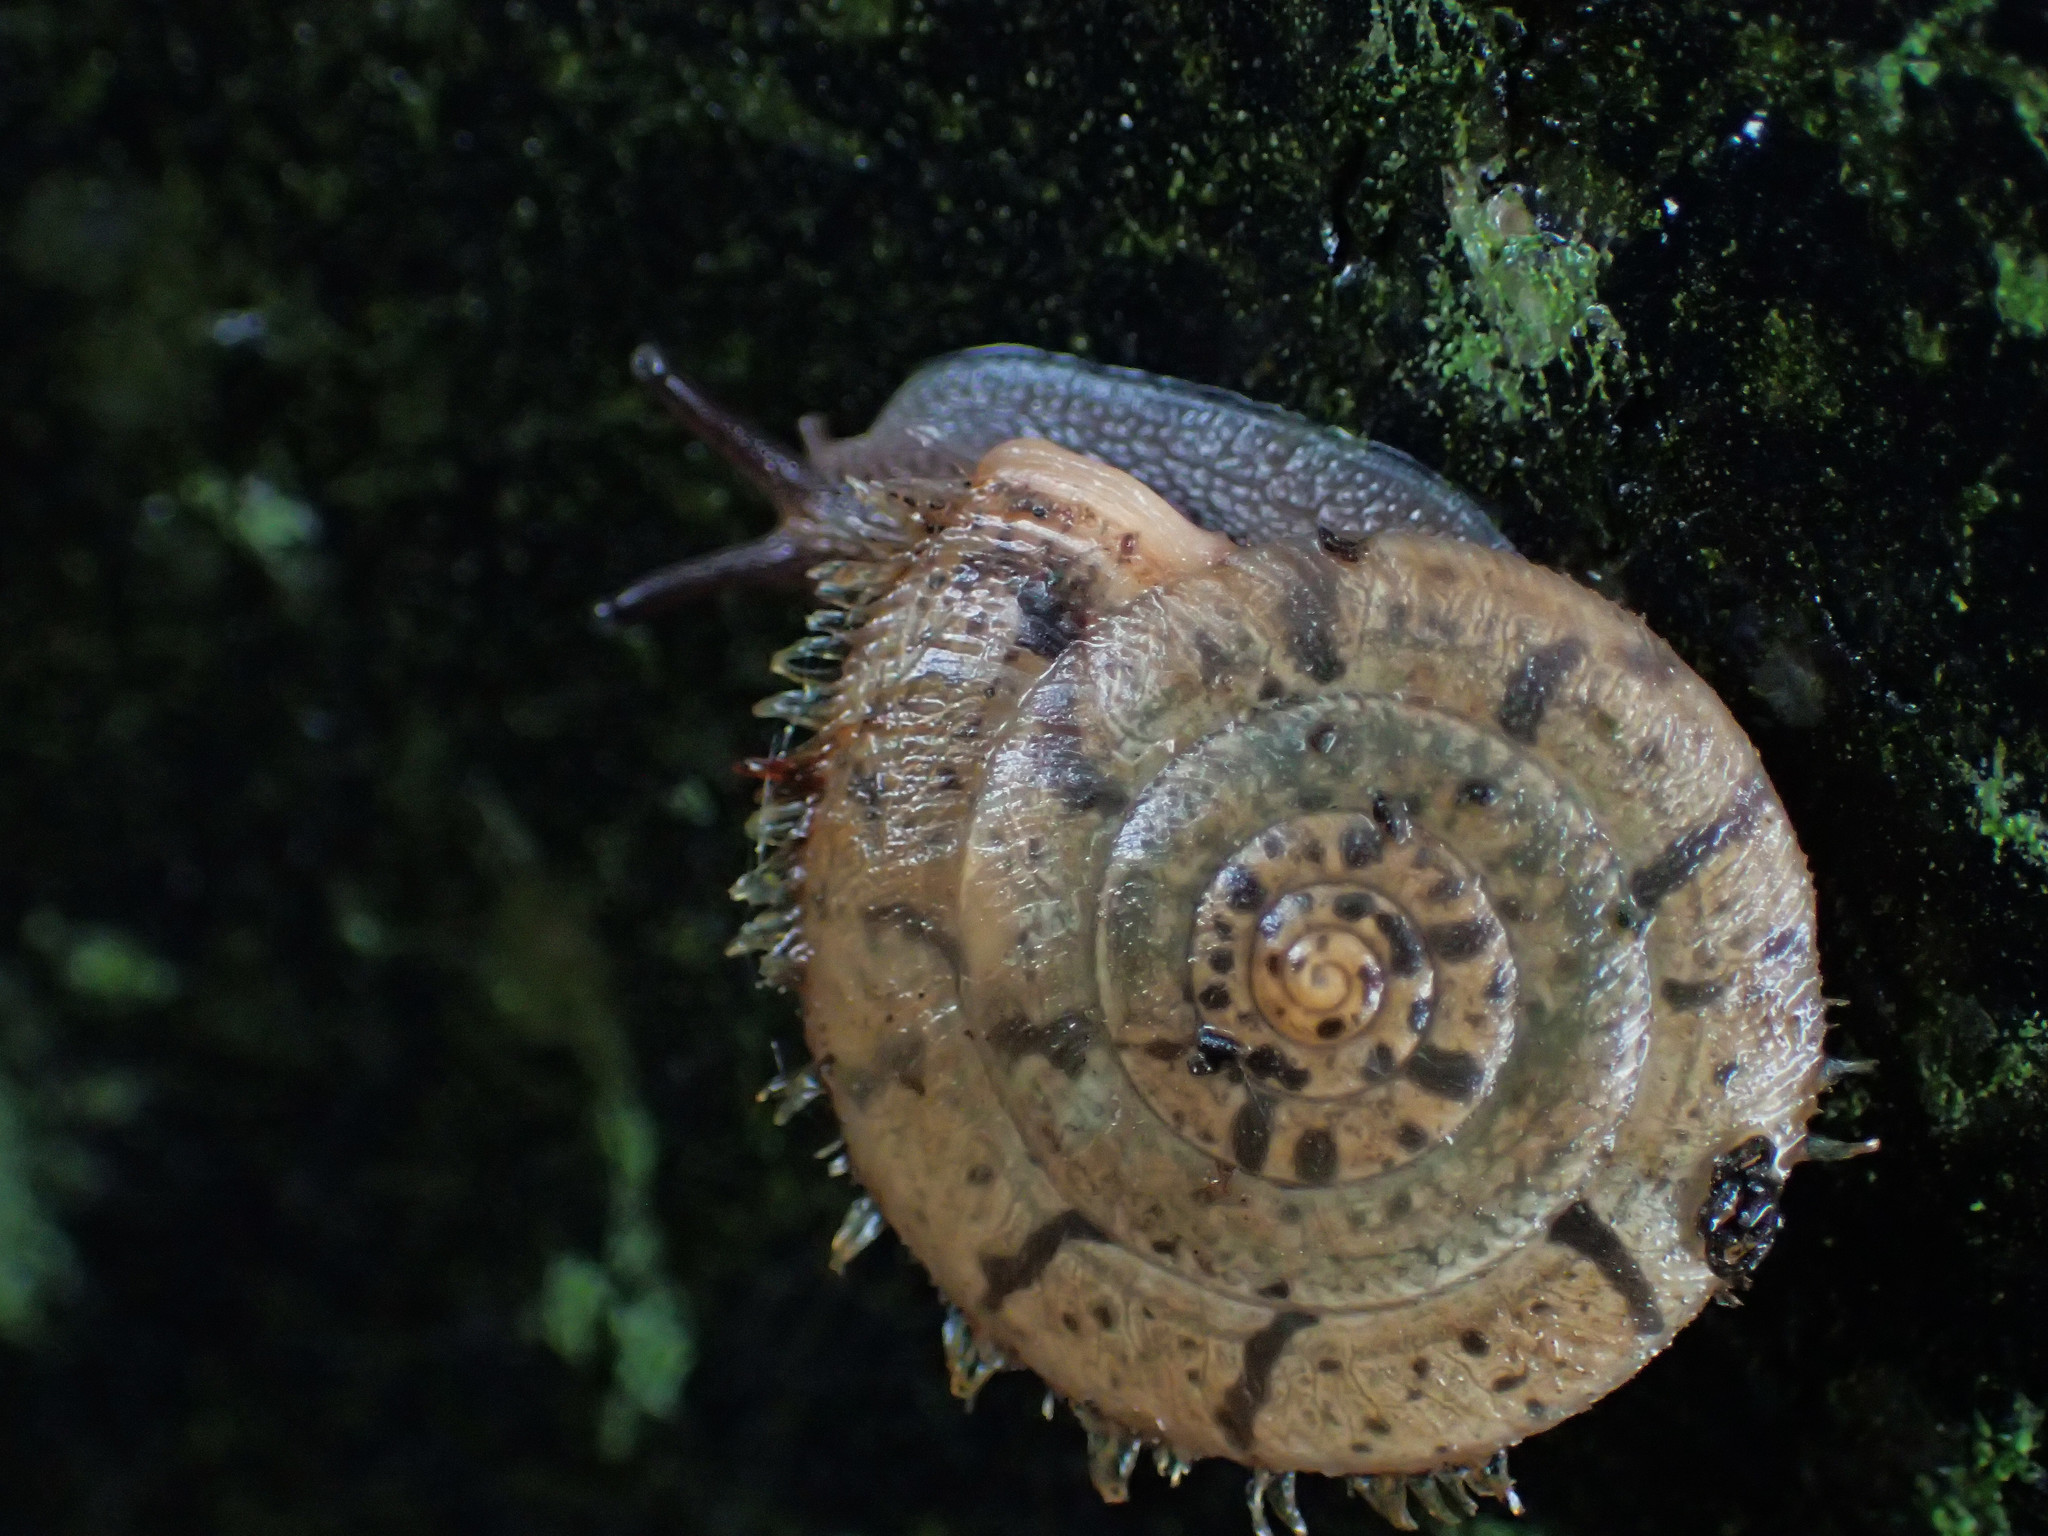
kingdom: Animalia
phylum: Mollusca
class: Gastropoda
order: Stylommatophora
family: Camaenidae
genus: Plectotropis
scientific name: Plectotropis mackensii
